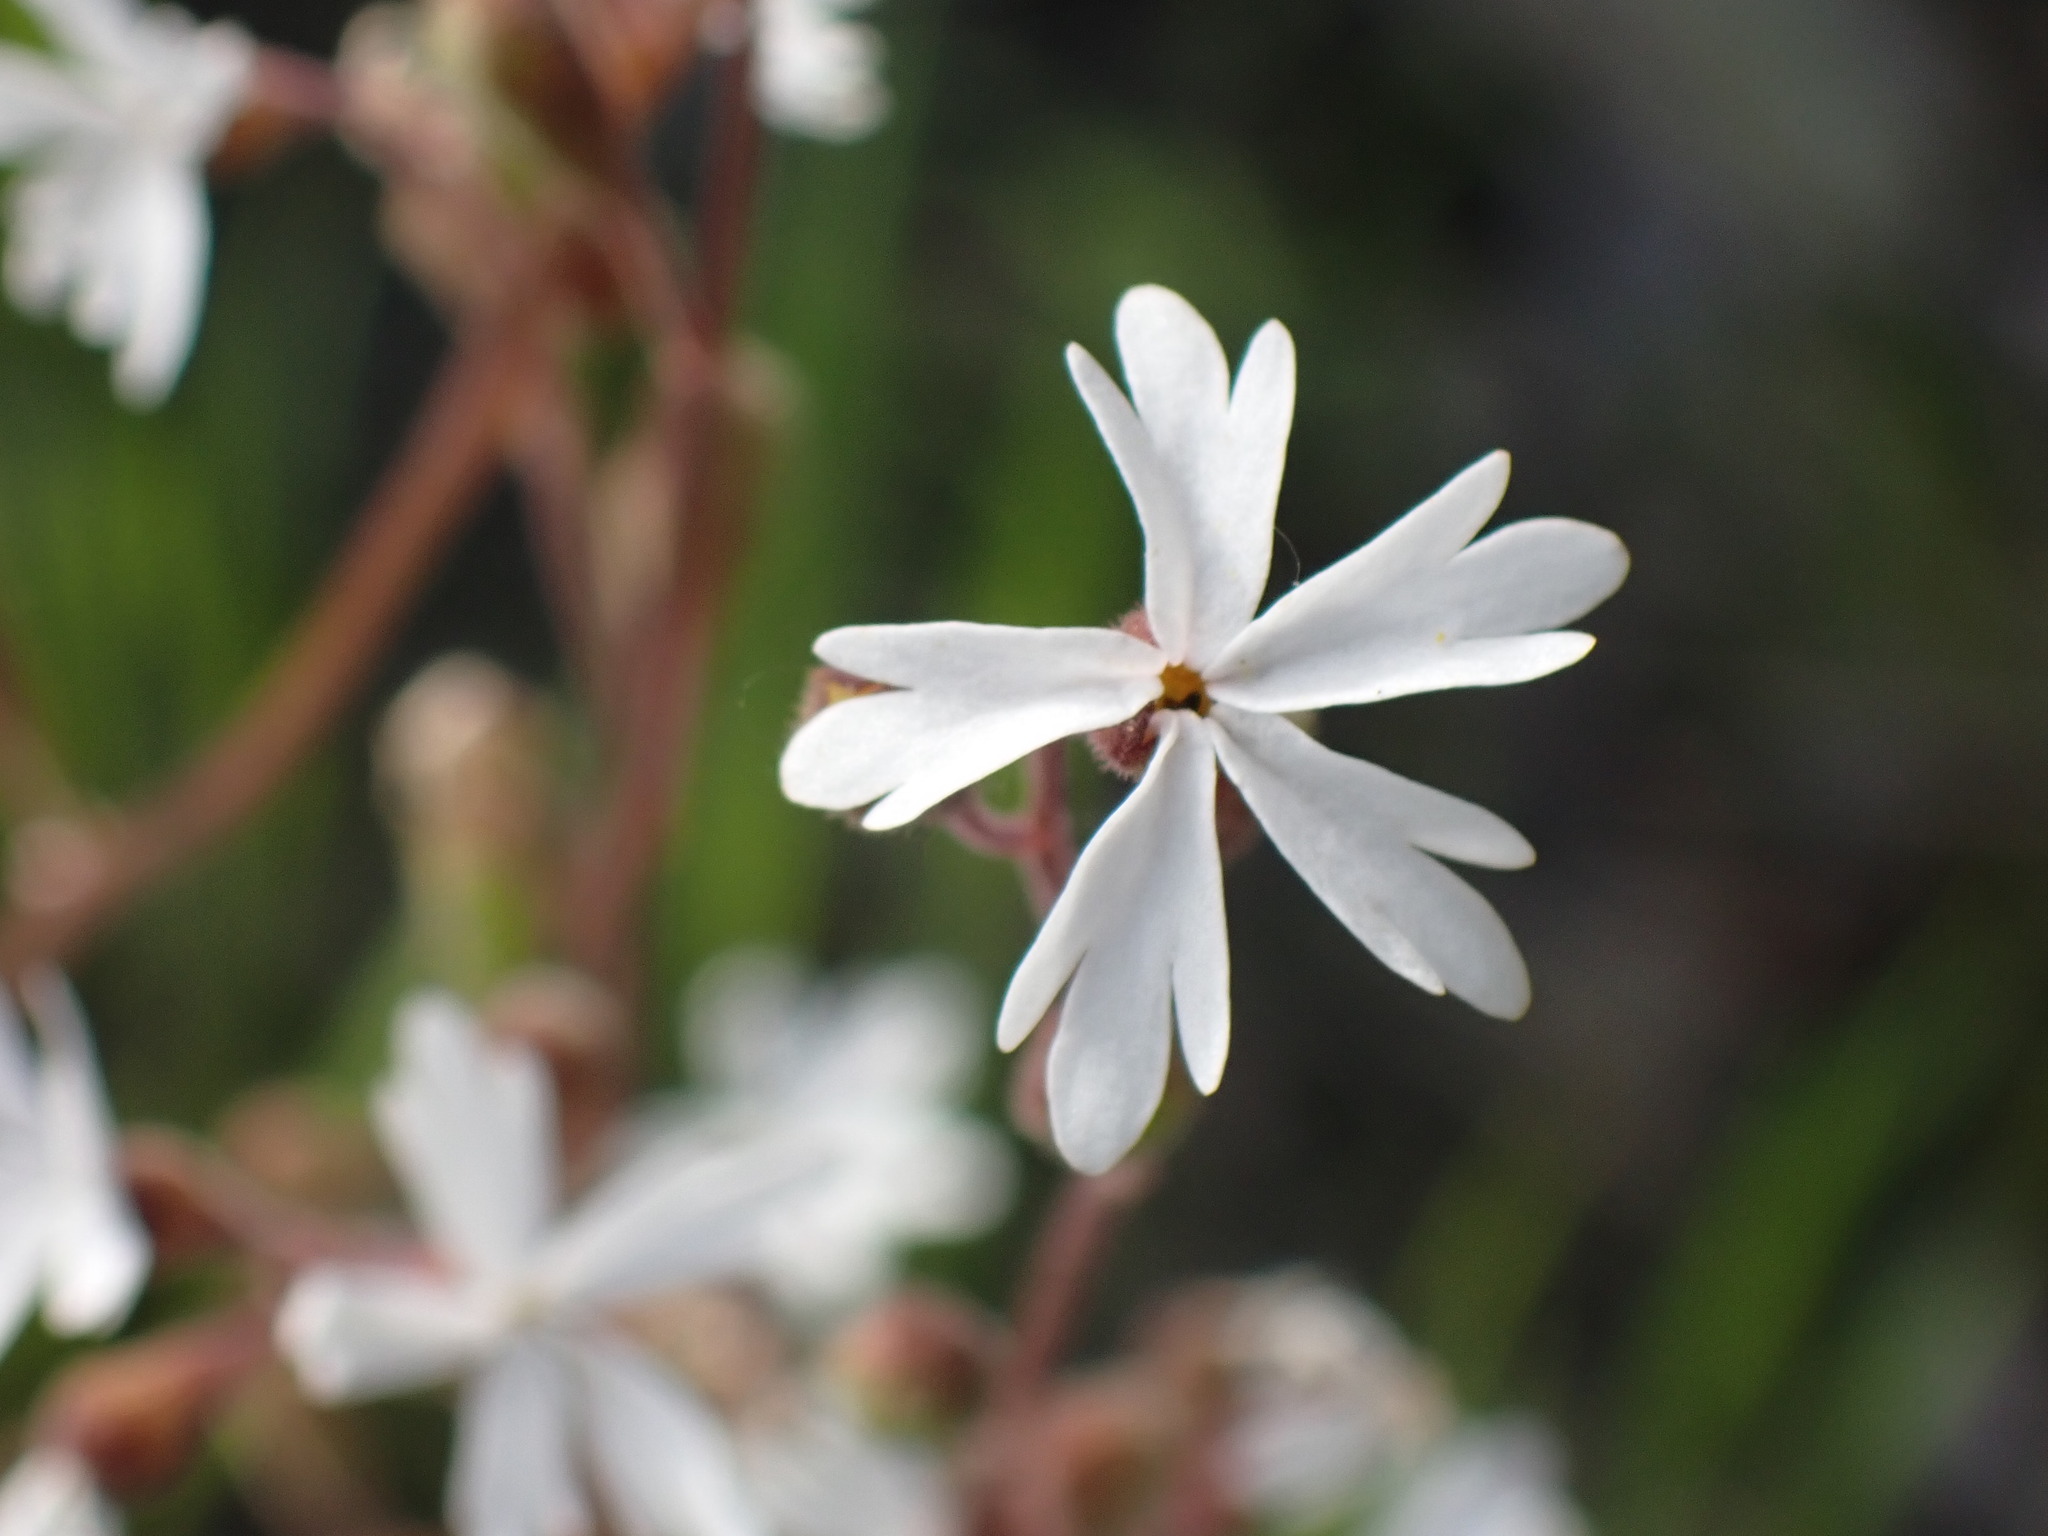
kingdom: Plantae
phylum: Tracheophyta
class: Magnoliopsida
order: Saxifragales
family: Saxifragaceae
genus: Lithophragma
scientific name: Lithophragma parviflorum
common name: Small-flowered fringe-cup
